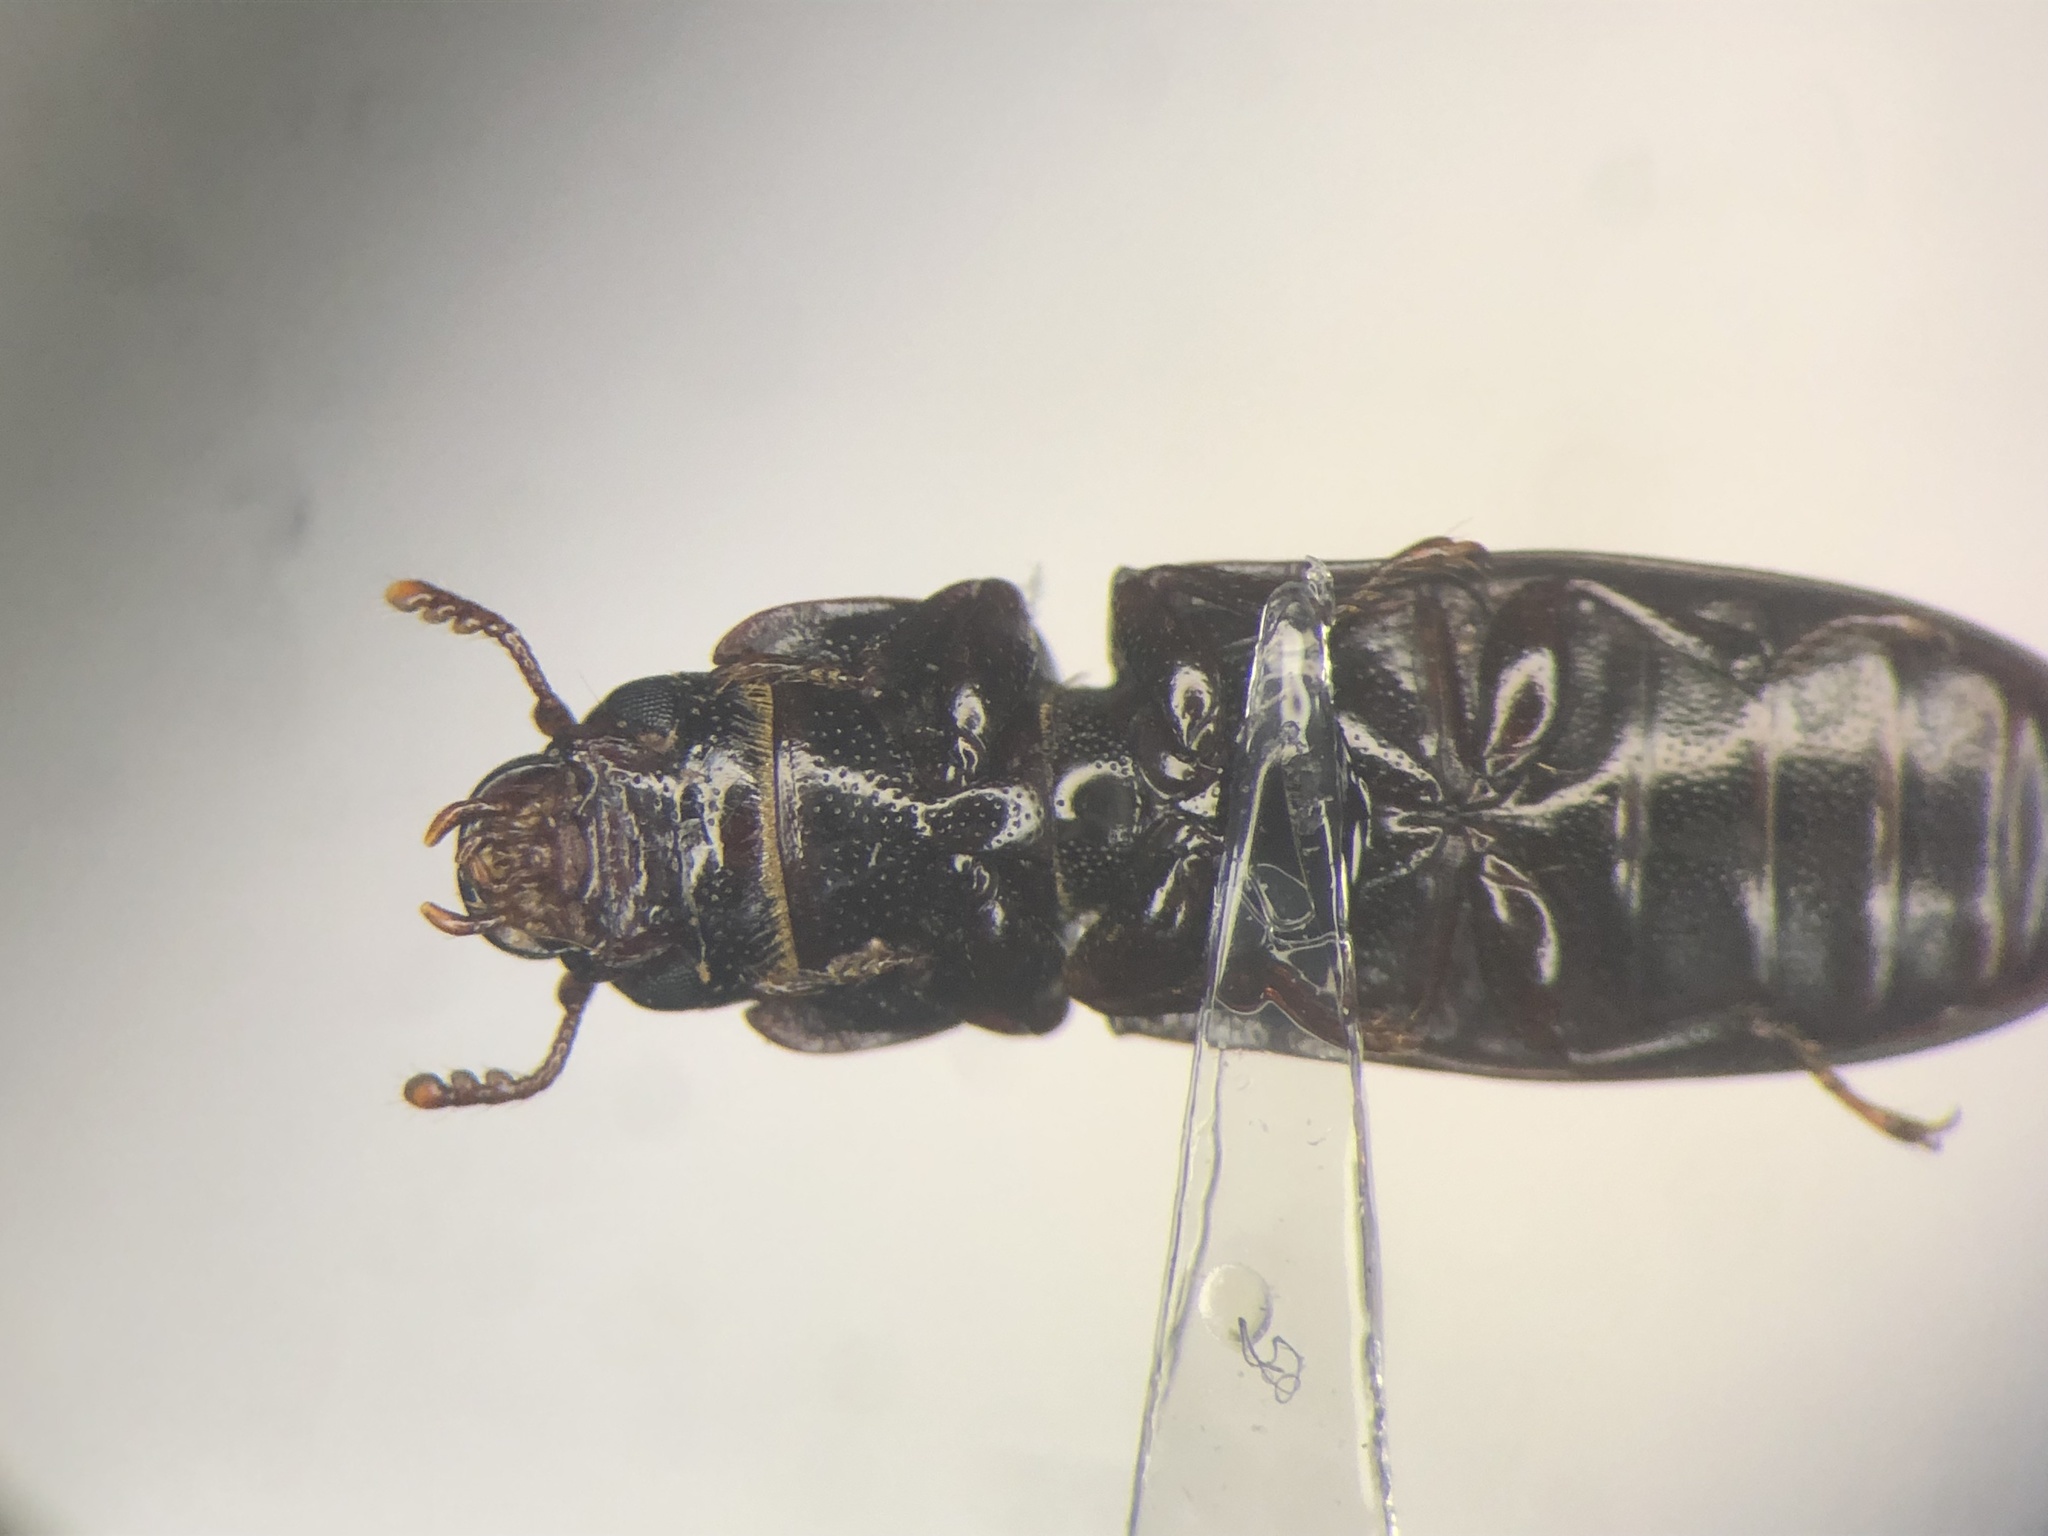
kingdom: Animalia
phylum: Arthropoda
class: Insecta
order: Coleoptera
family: Trogossitidae
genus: Tenebroides
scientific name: Tenebroides corticalis
